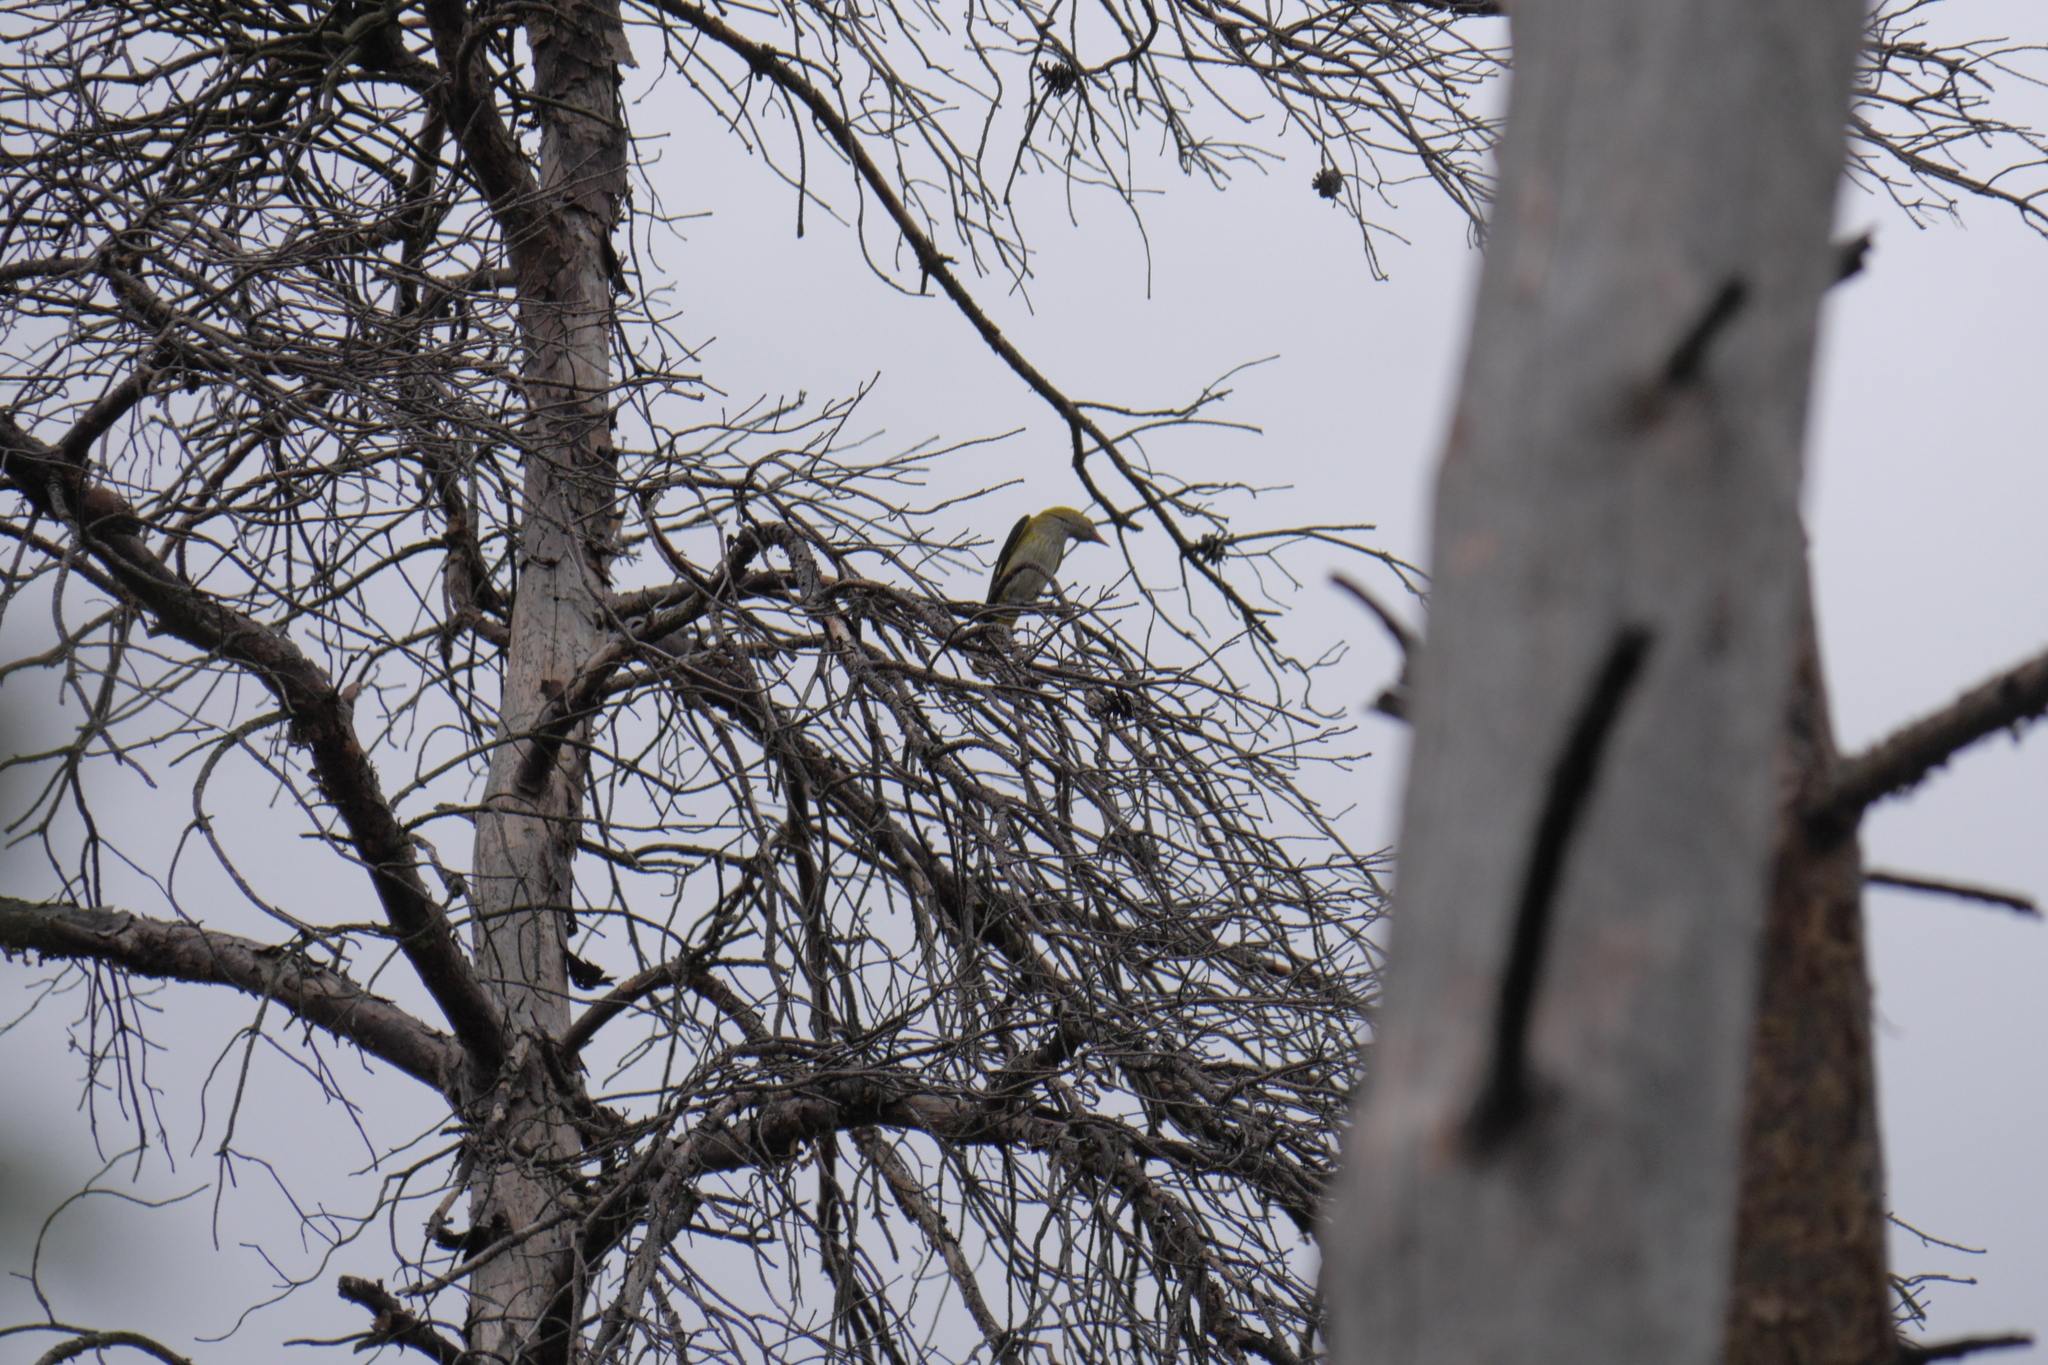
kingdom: Animalia
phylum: Chordata
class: Aves
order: Passeriformes
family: Oriolidae
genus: Oriolus
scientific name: Oriolus oriolus
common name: Eurasian golden oriole
